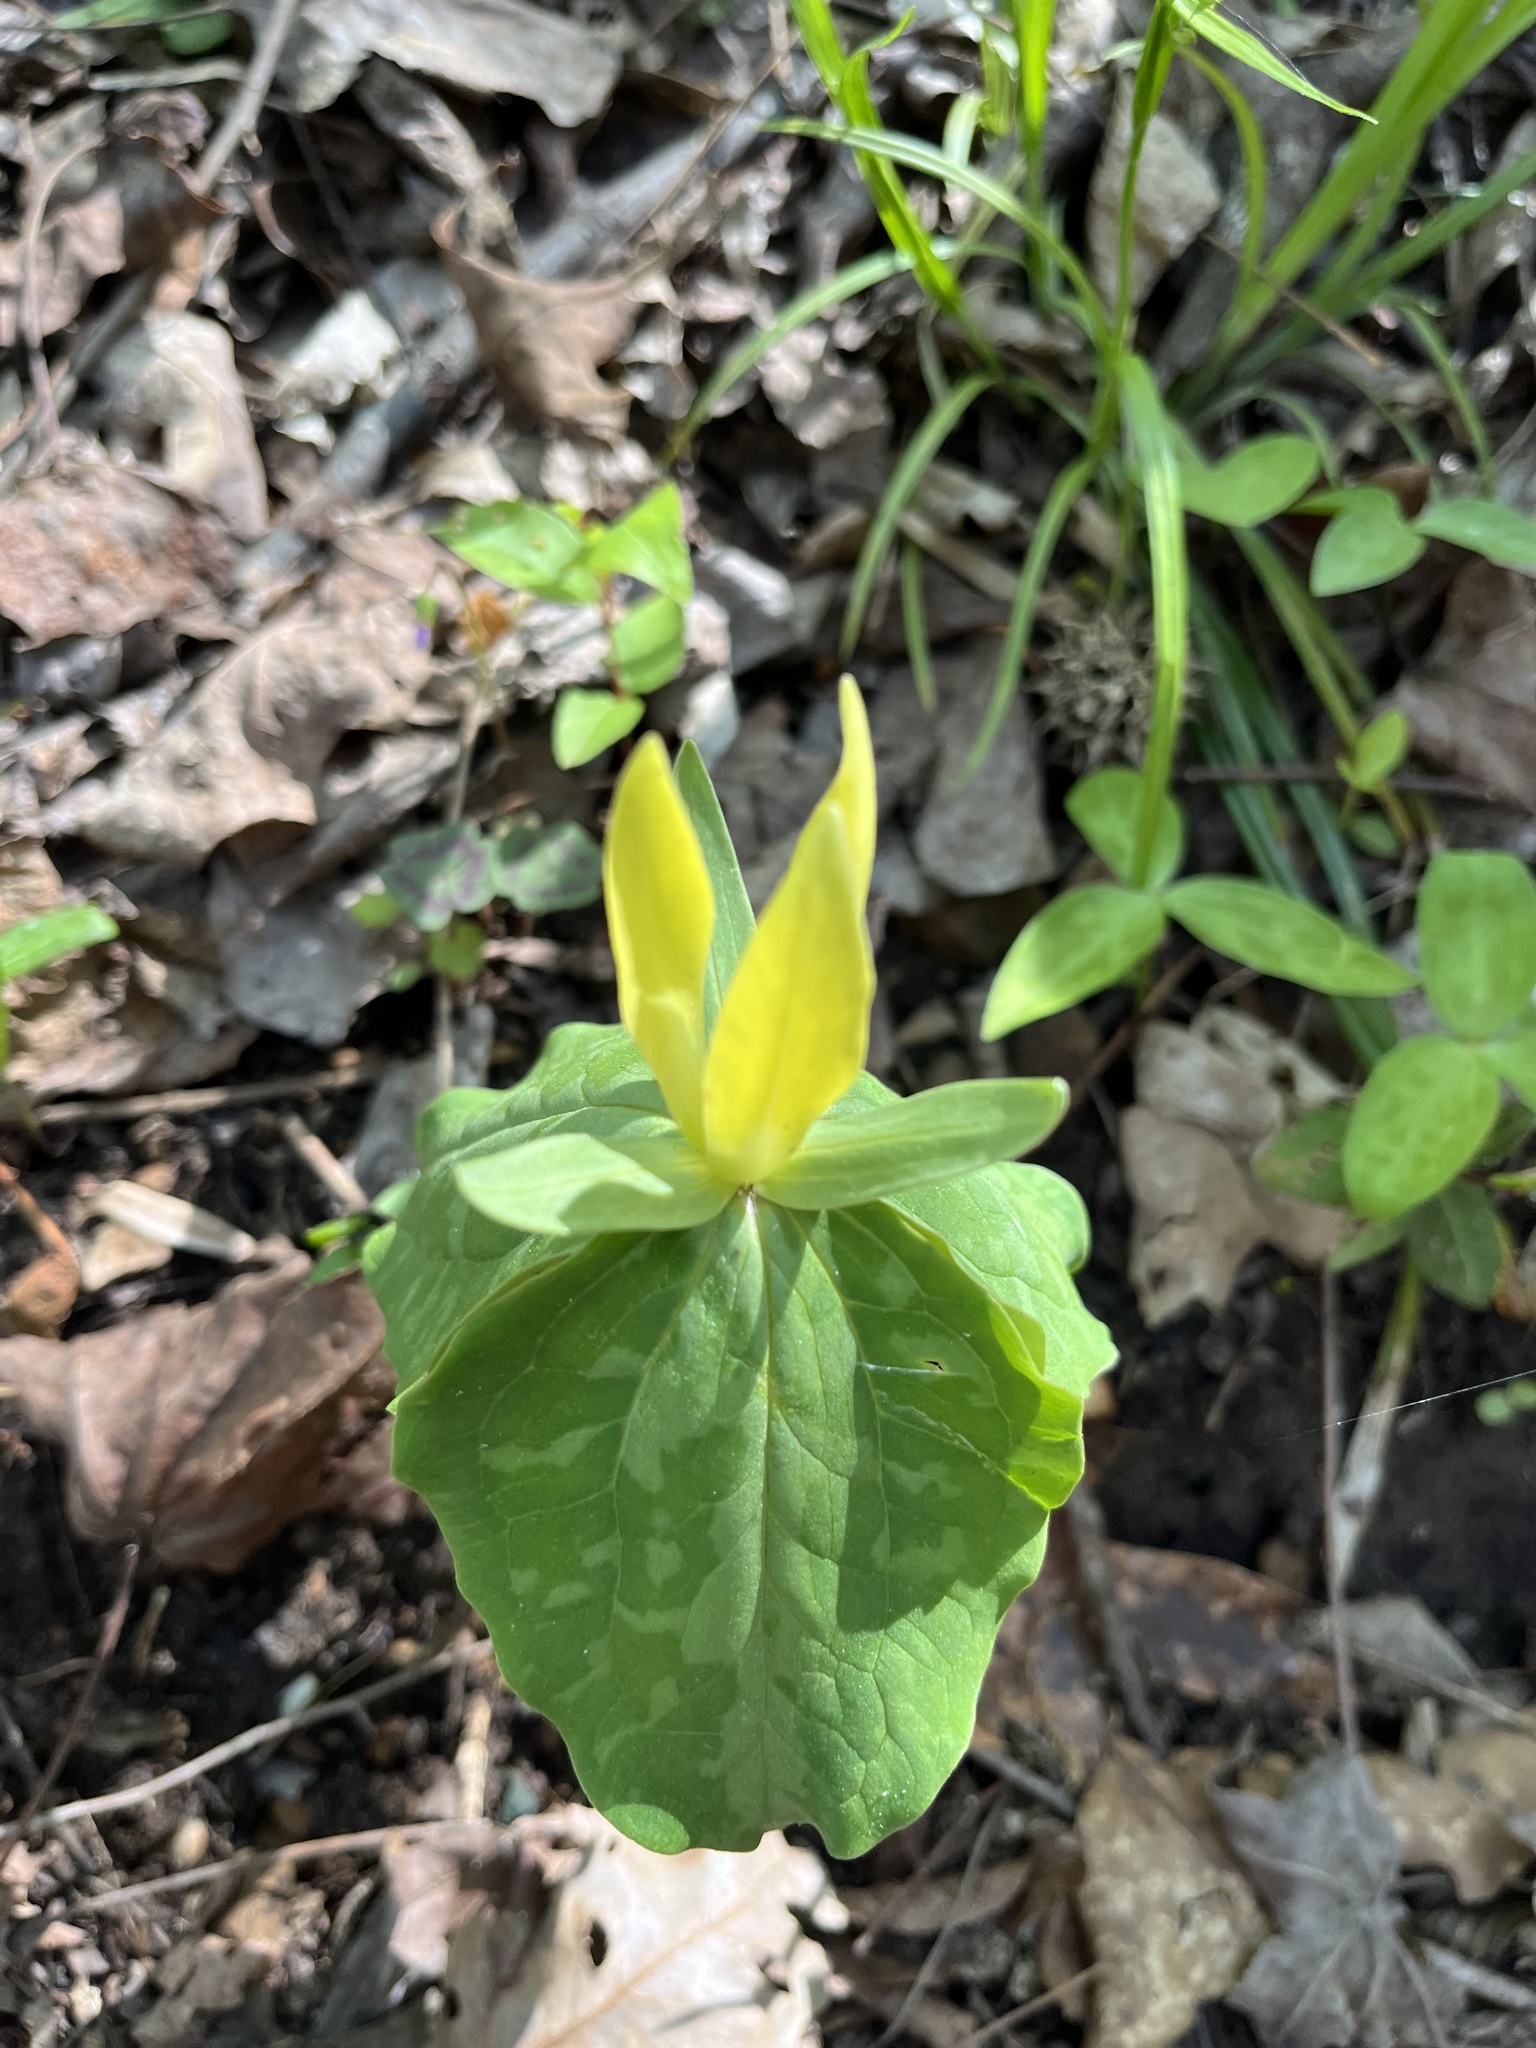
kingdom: Plantae
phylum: Tracheophyta
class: Liliopsida
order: Liliales
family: Melanthiaceae
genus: Trillium
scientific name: Trillium luteum
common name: Wax trillium
